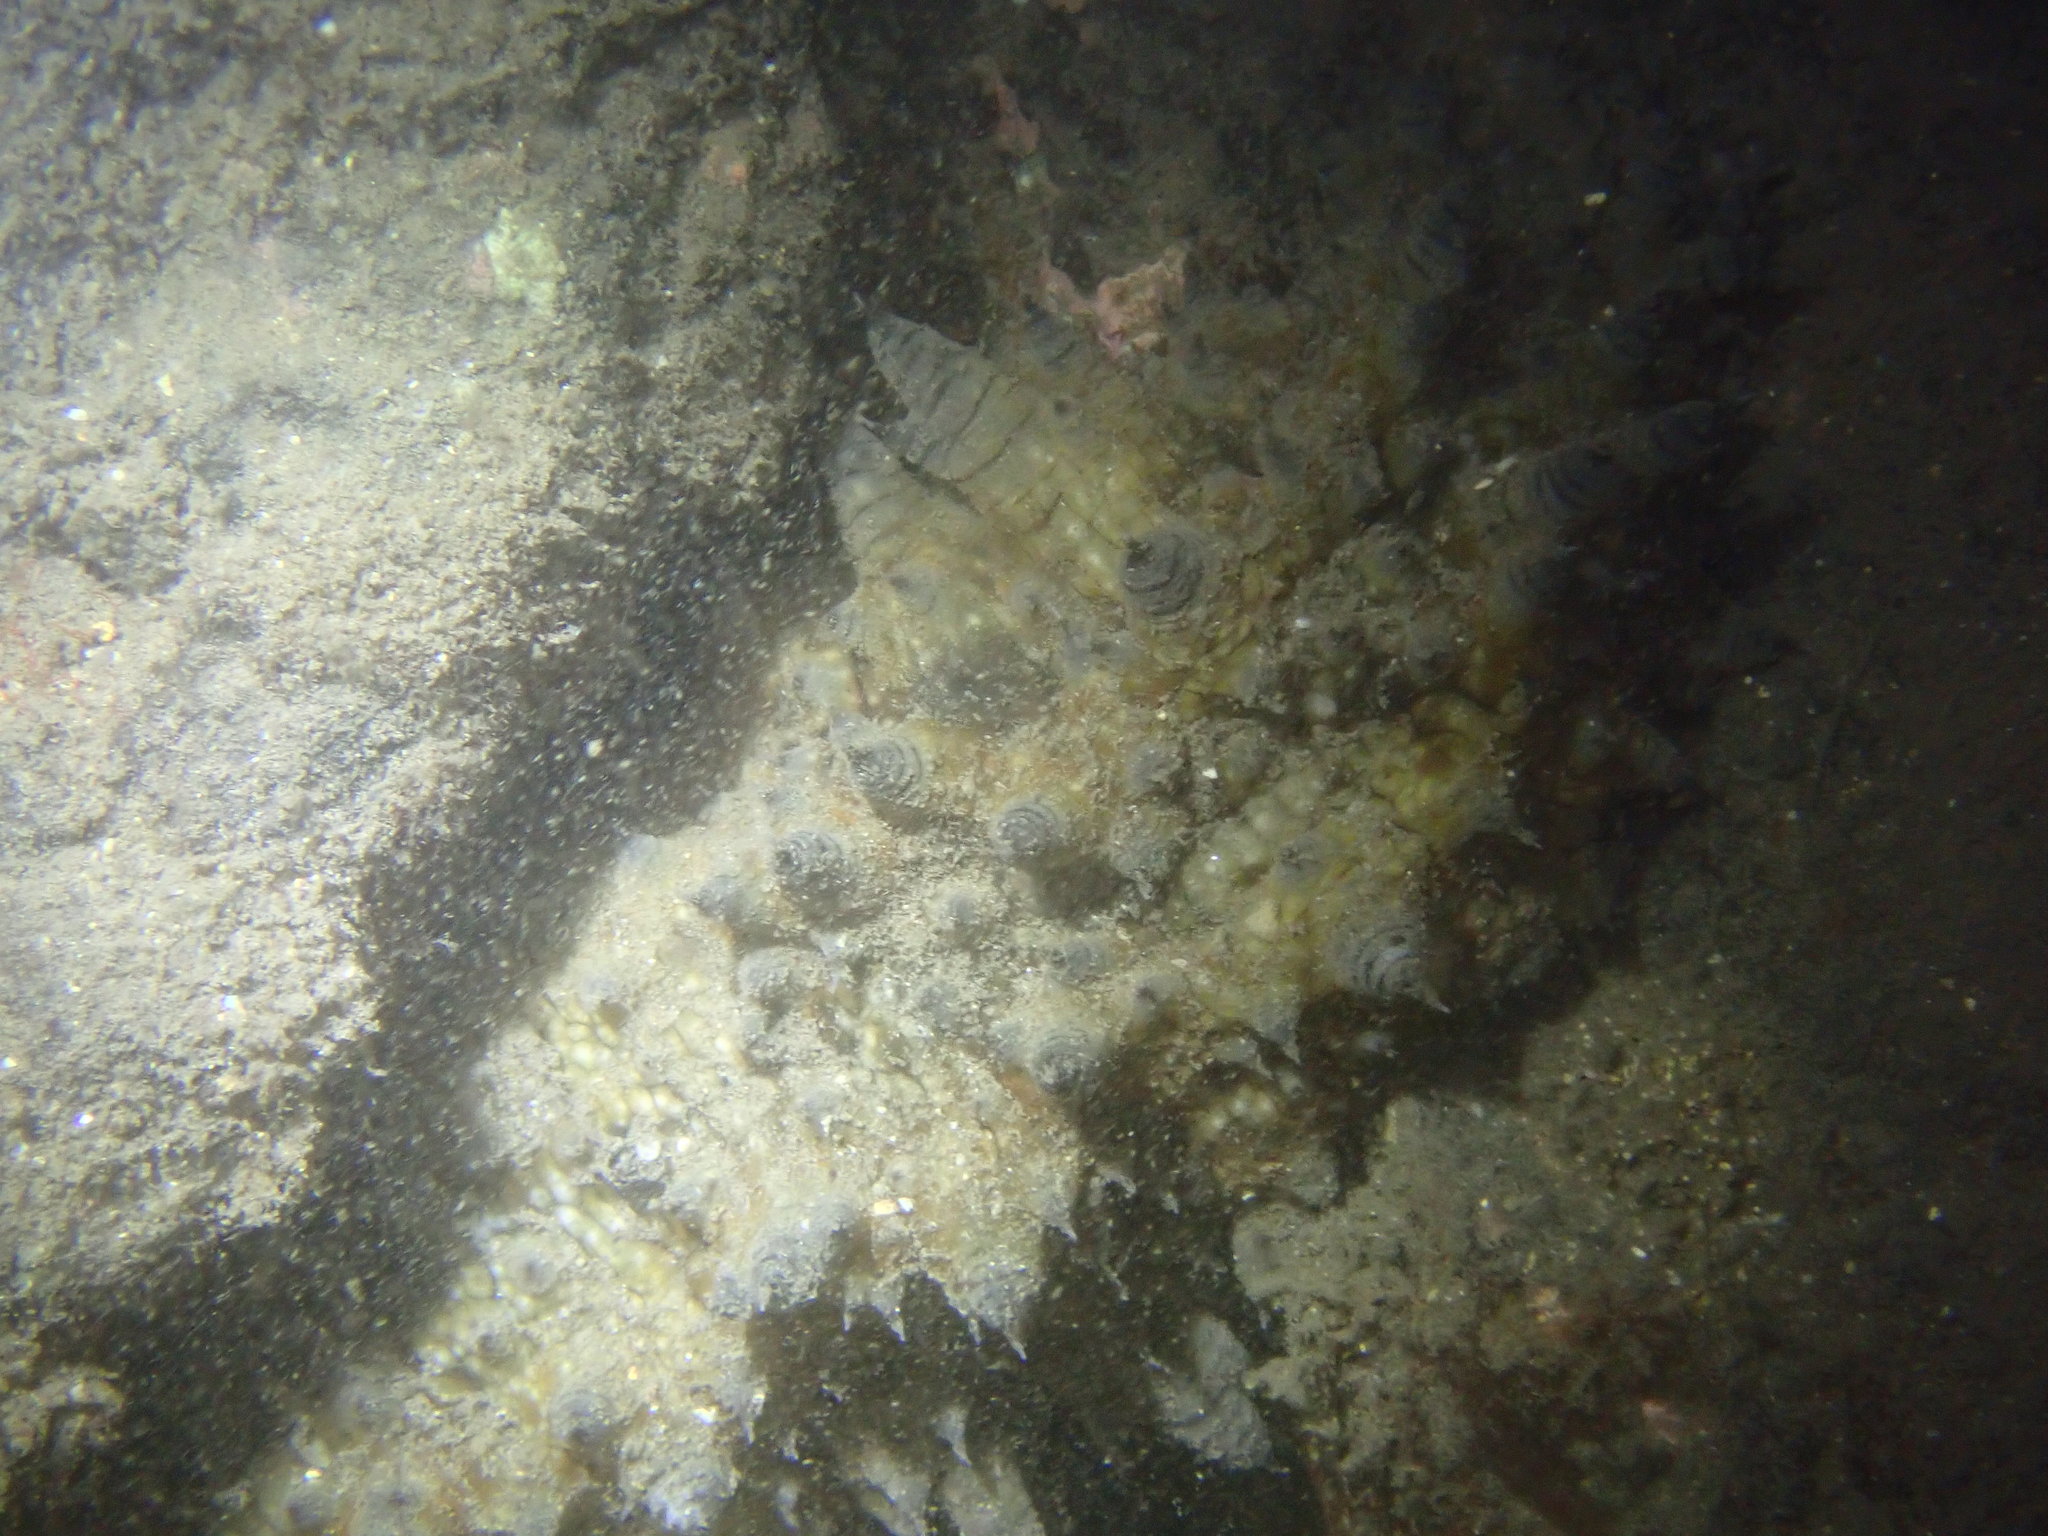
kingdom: Animalia
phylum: Echinodermata
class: Holothuroidea
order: Synallactida
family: Stichopodidae
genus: Stichopus
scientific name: Stichopus horrens
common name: Dragonfish
